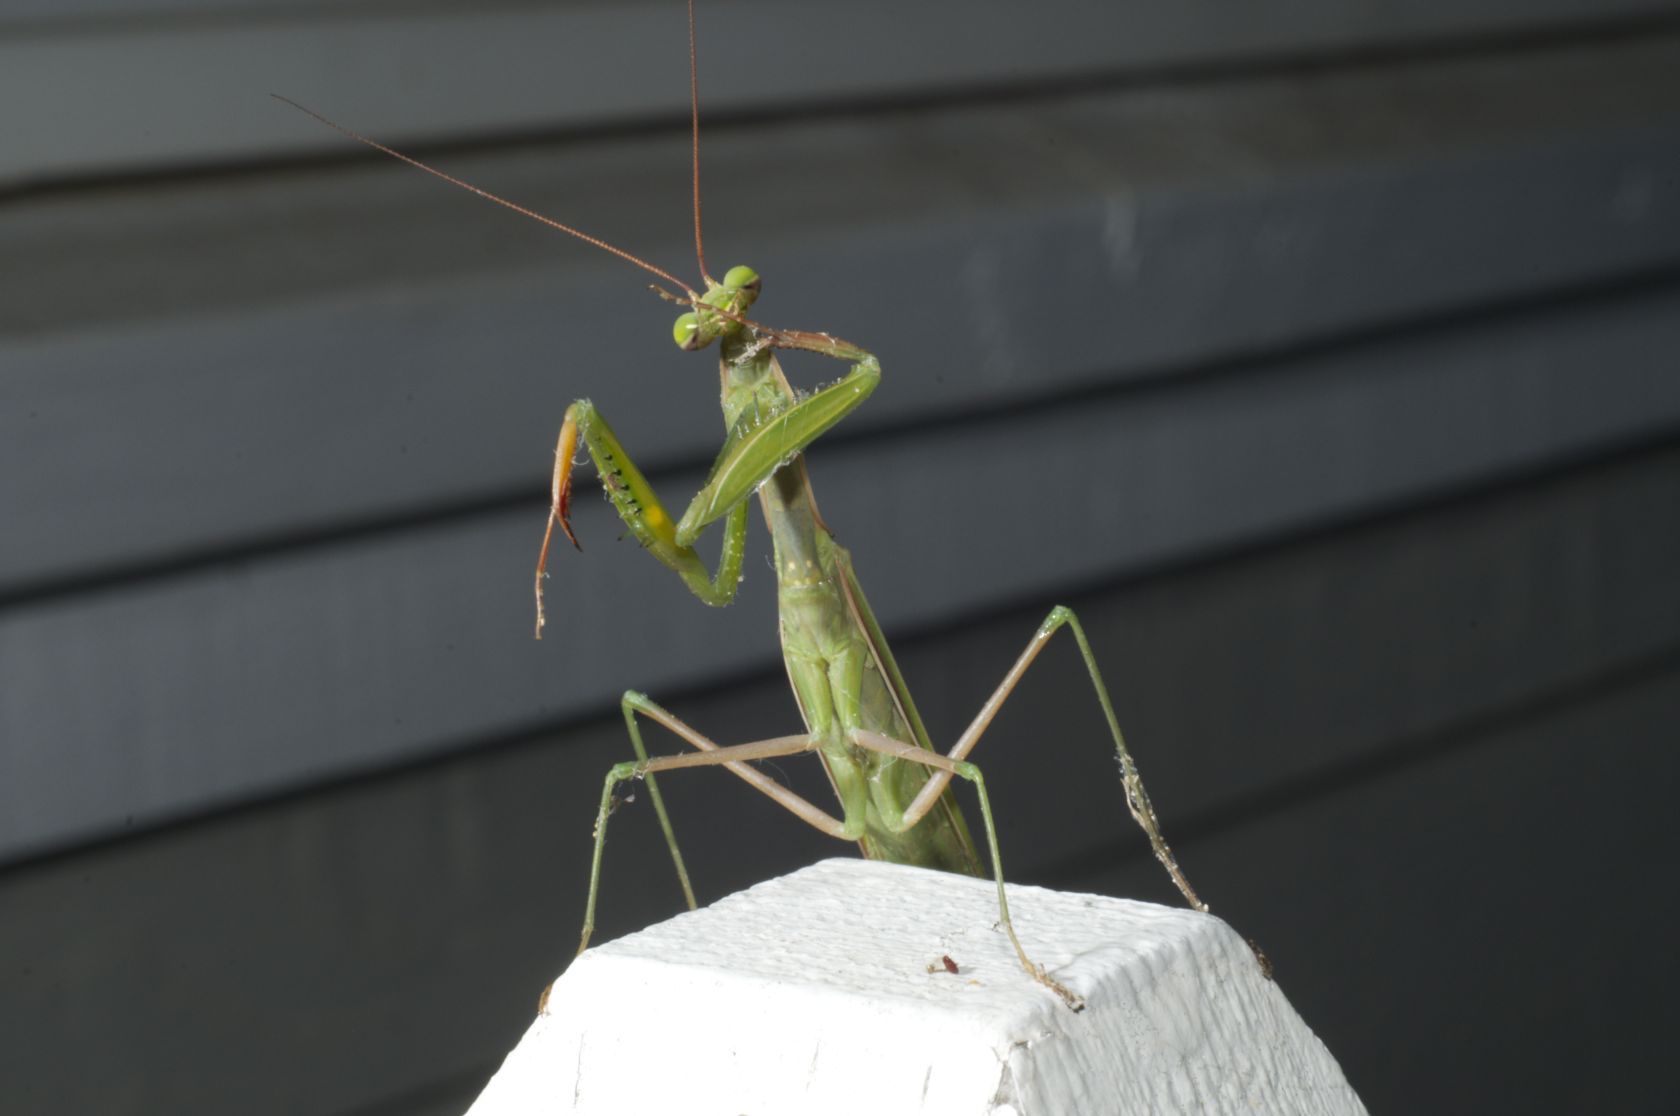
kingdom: Animalia
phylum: Arthropoda
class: Insecta
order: Mantodea
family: Mantidae
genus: Mantis
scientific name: Mantis religiosa
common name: Praying mantis
